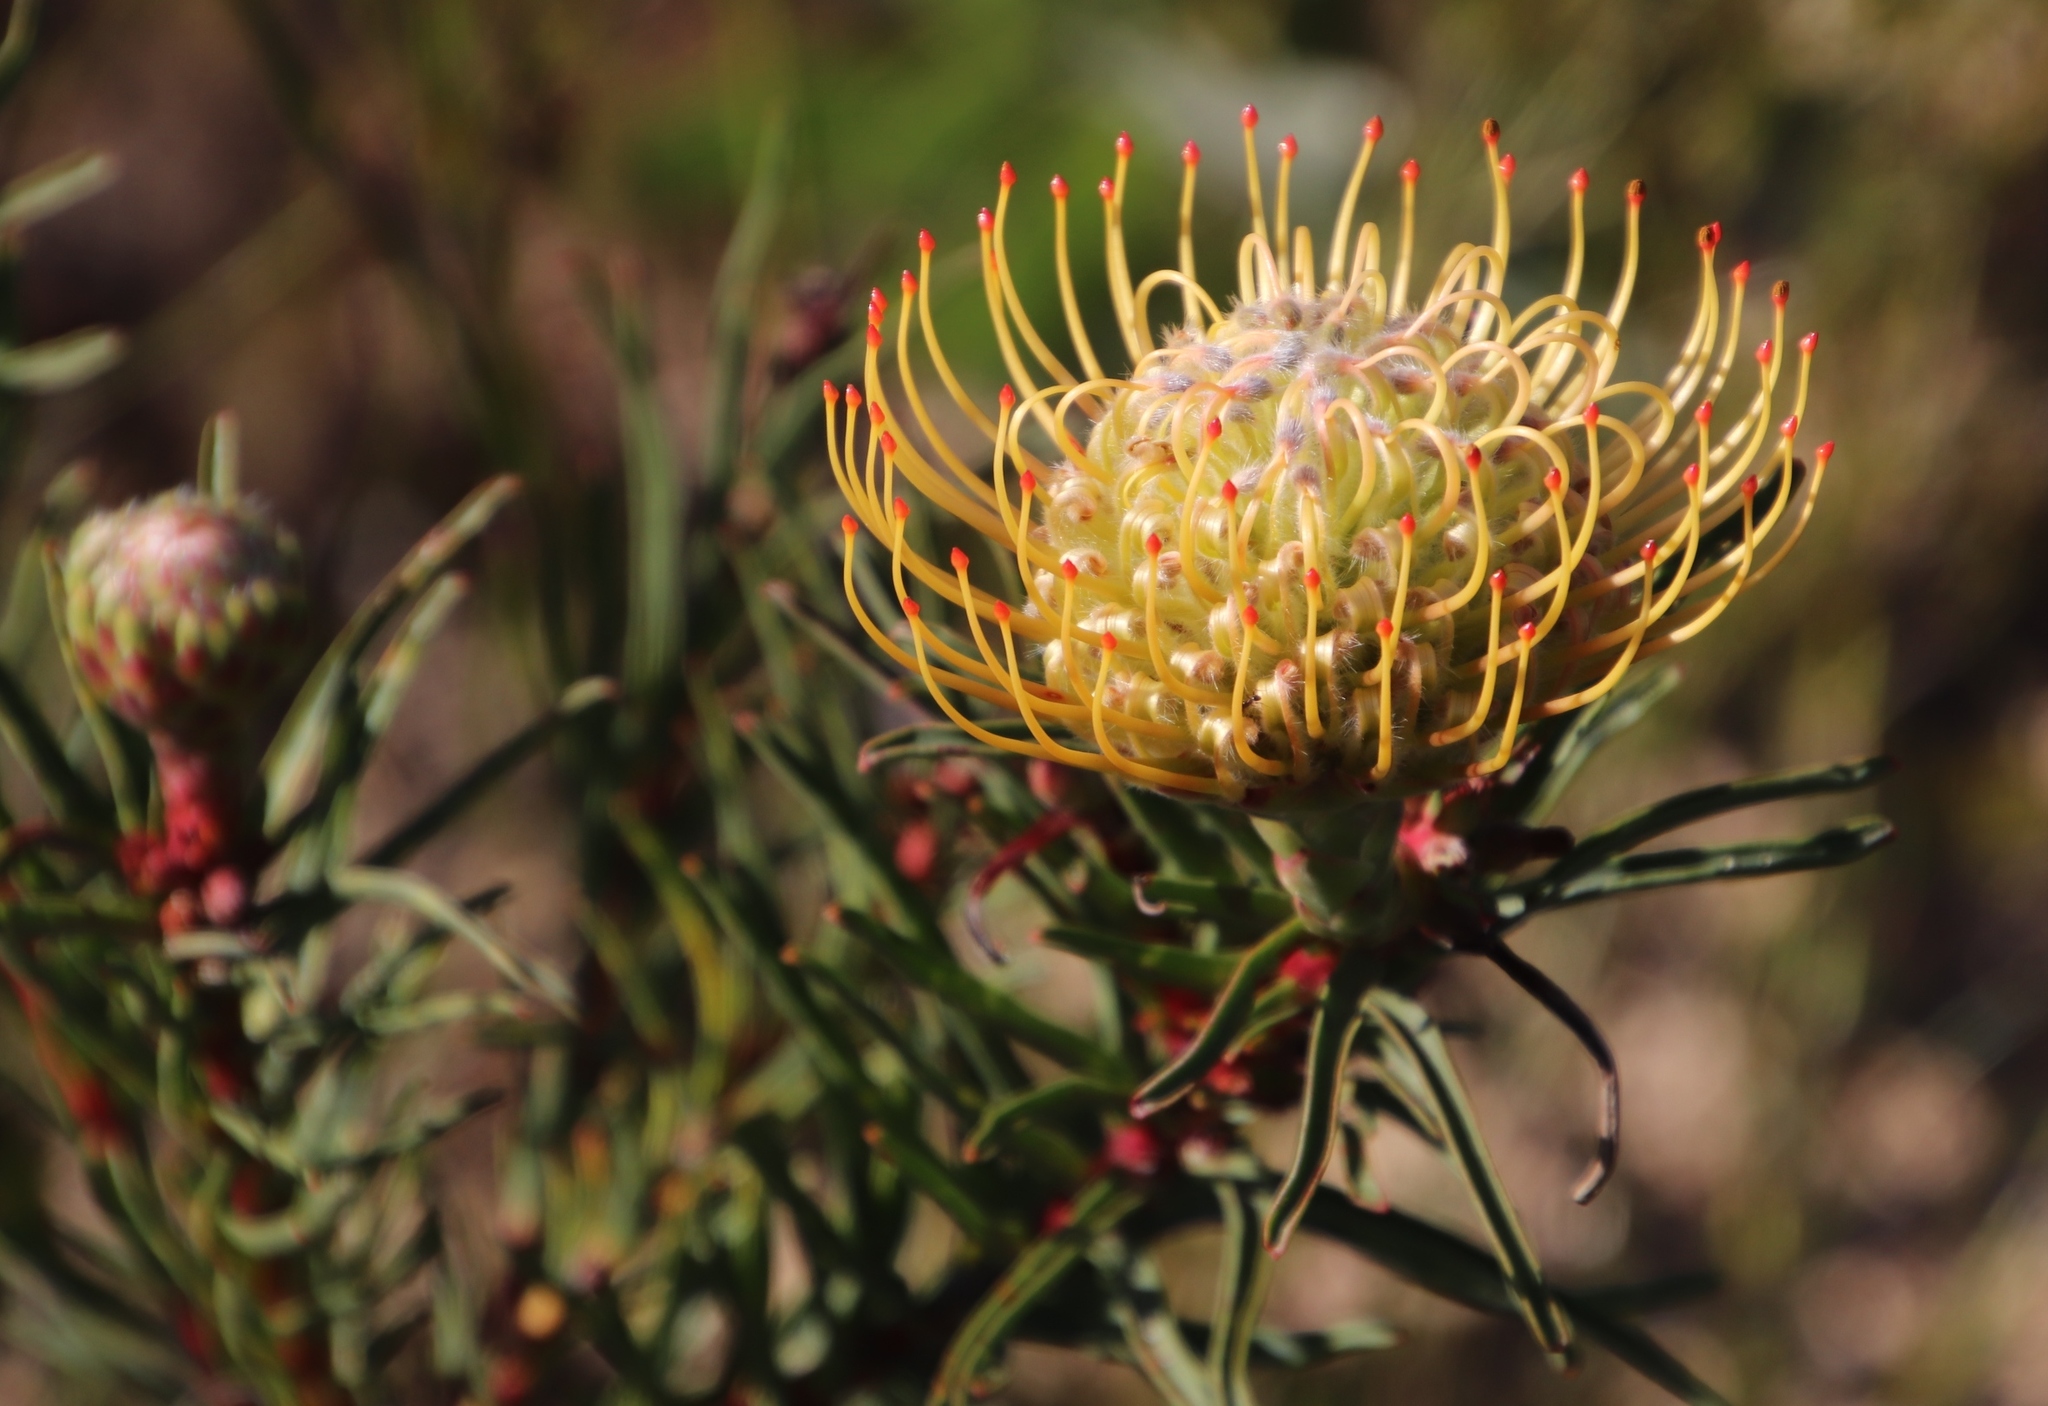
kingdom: Plantae
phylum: Tracheophyta
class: Magnoliopsida
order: Proteales
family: Proteaceae
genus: Leucospermum
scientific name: Leucospermum lineare
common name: Needle-leaf pincushion
